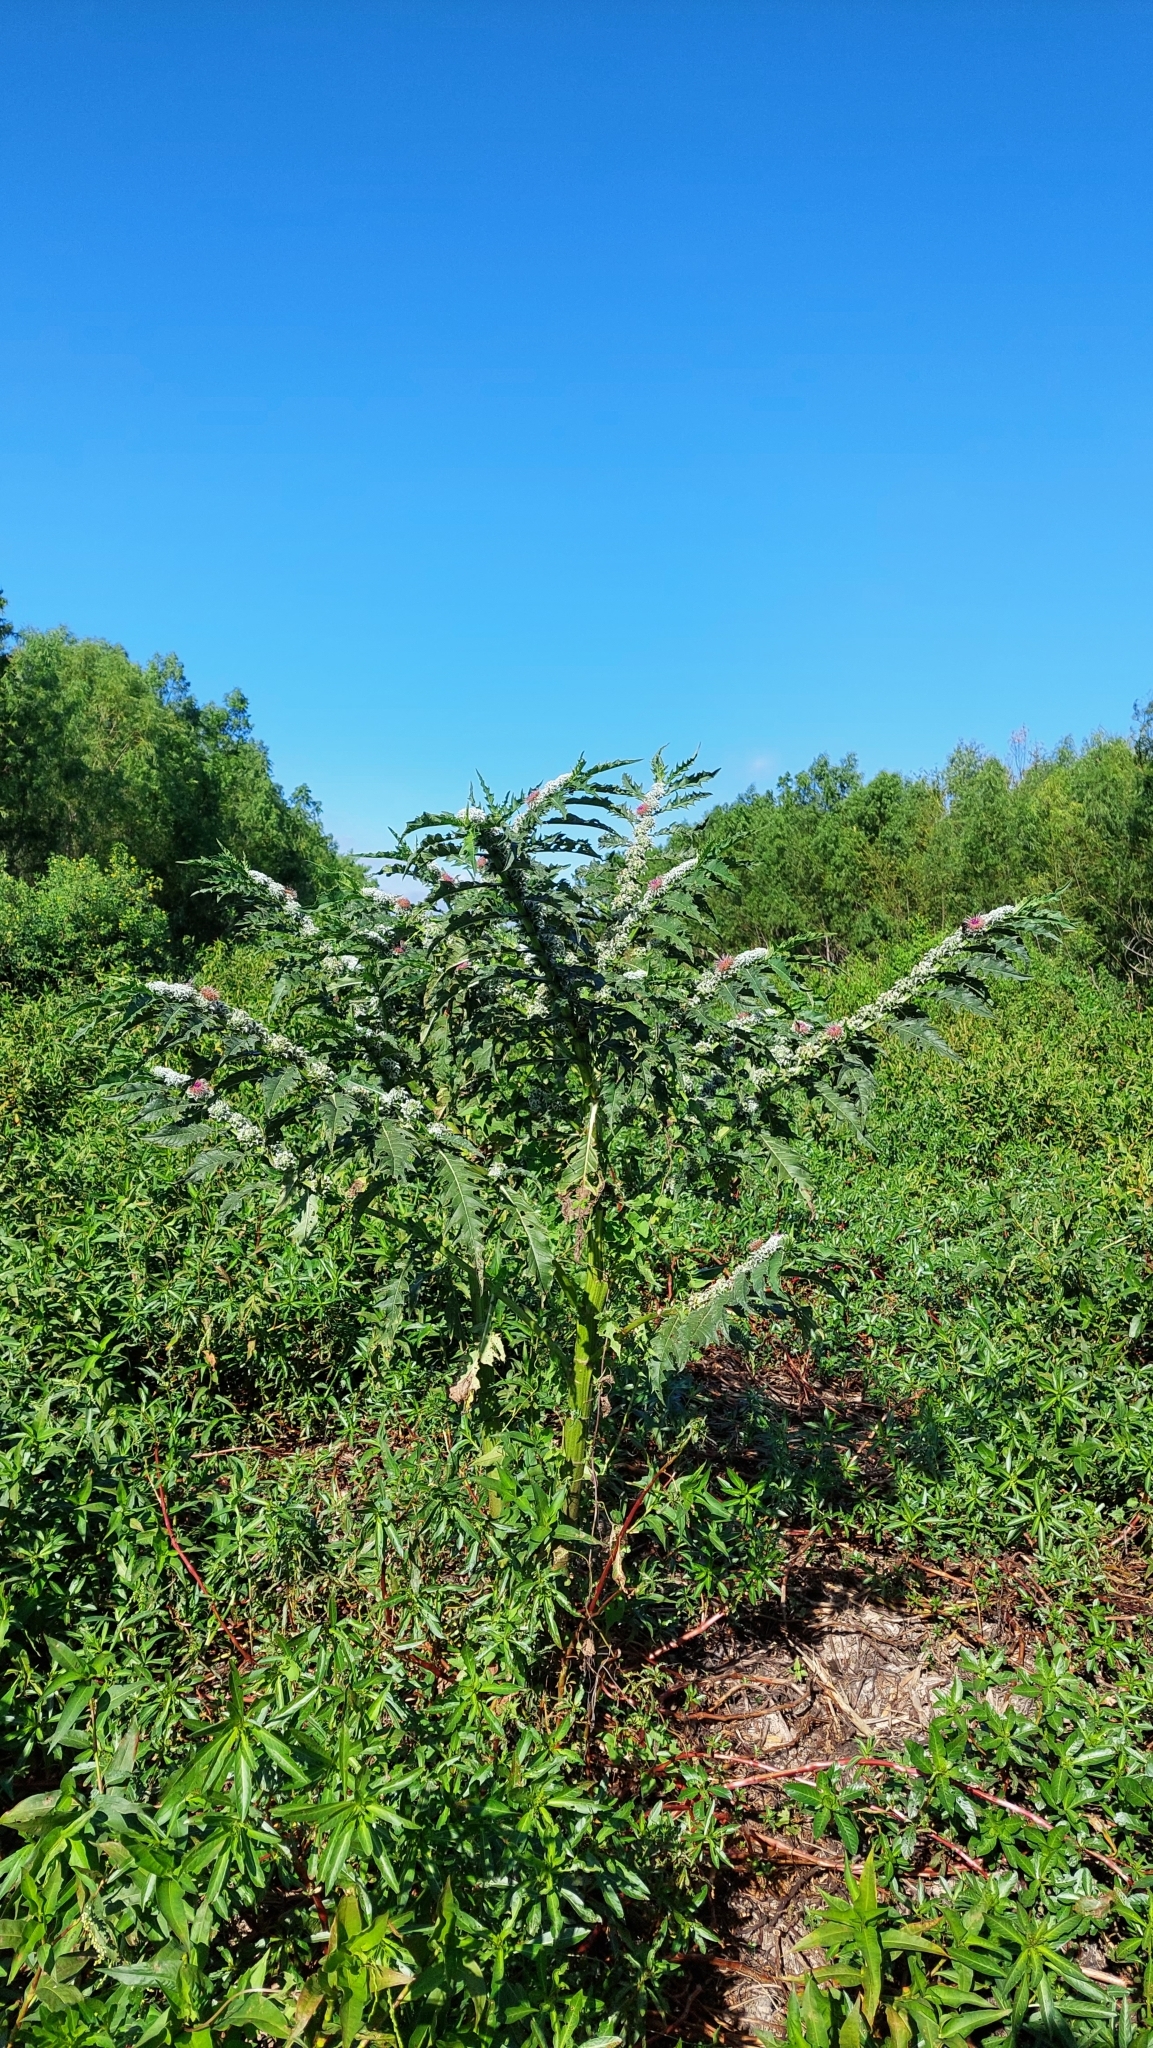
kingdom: Plantae
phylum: Tracheophyta
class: Magnoliopsida
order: Asterales
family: Asteraceae
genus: Pacourina
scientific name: Pacourina edulis
